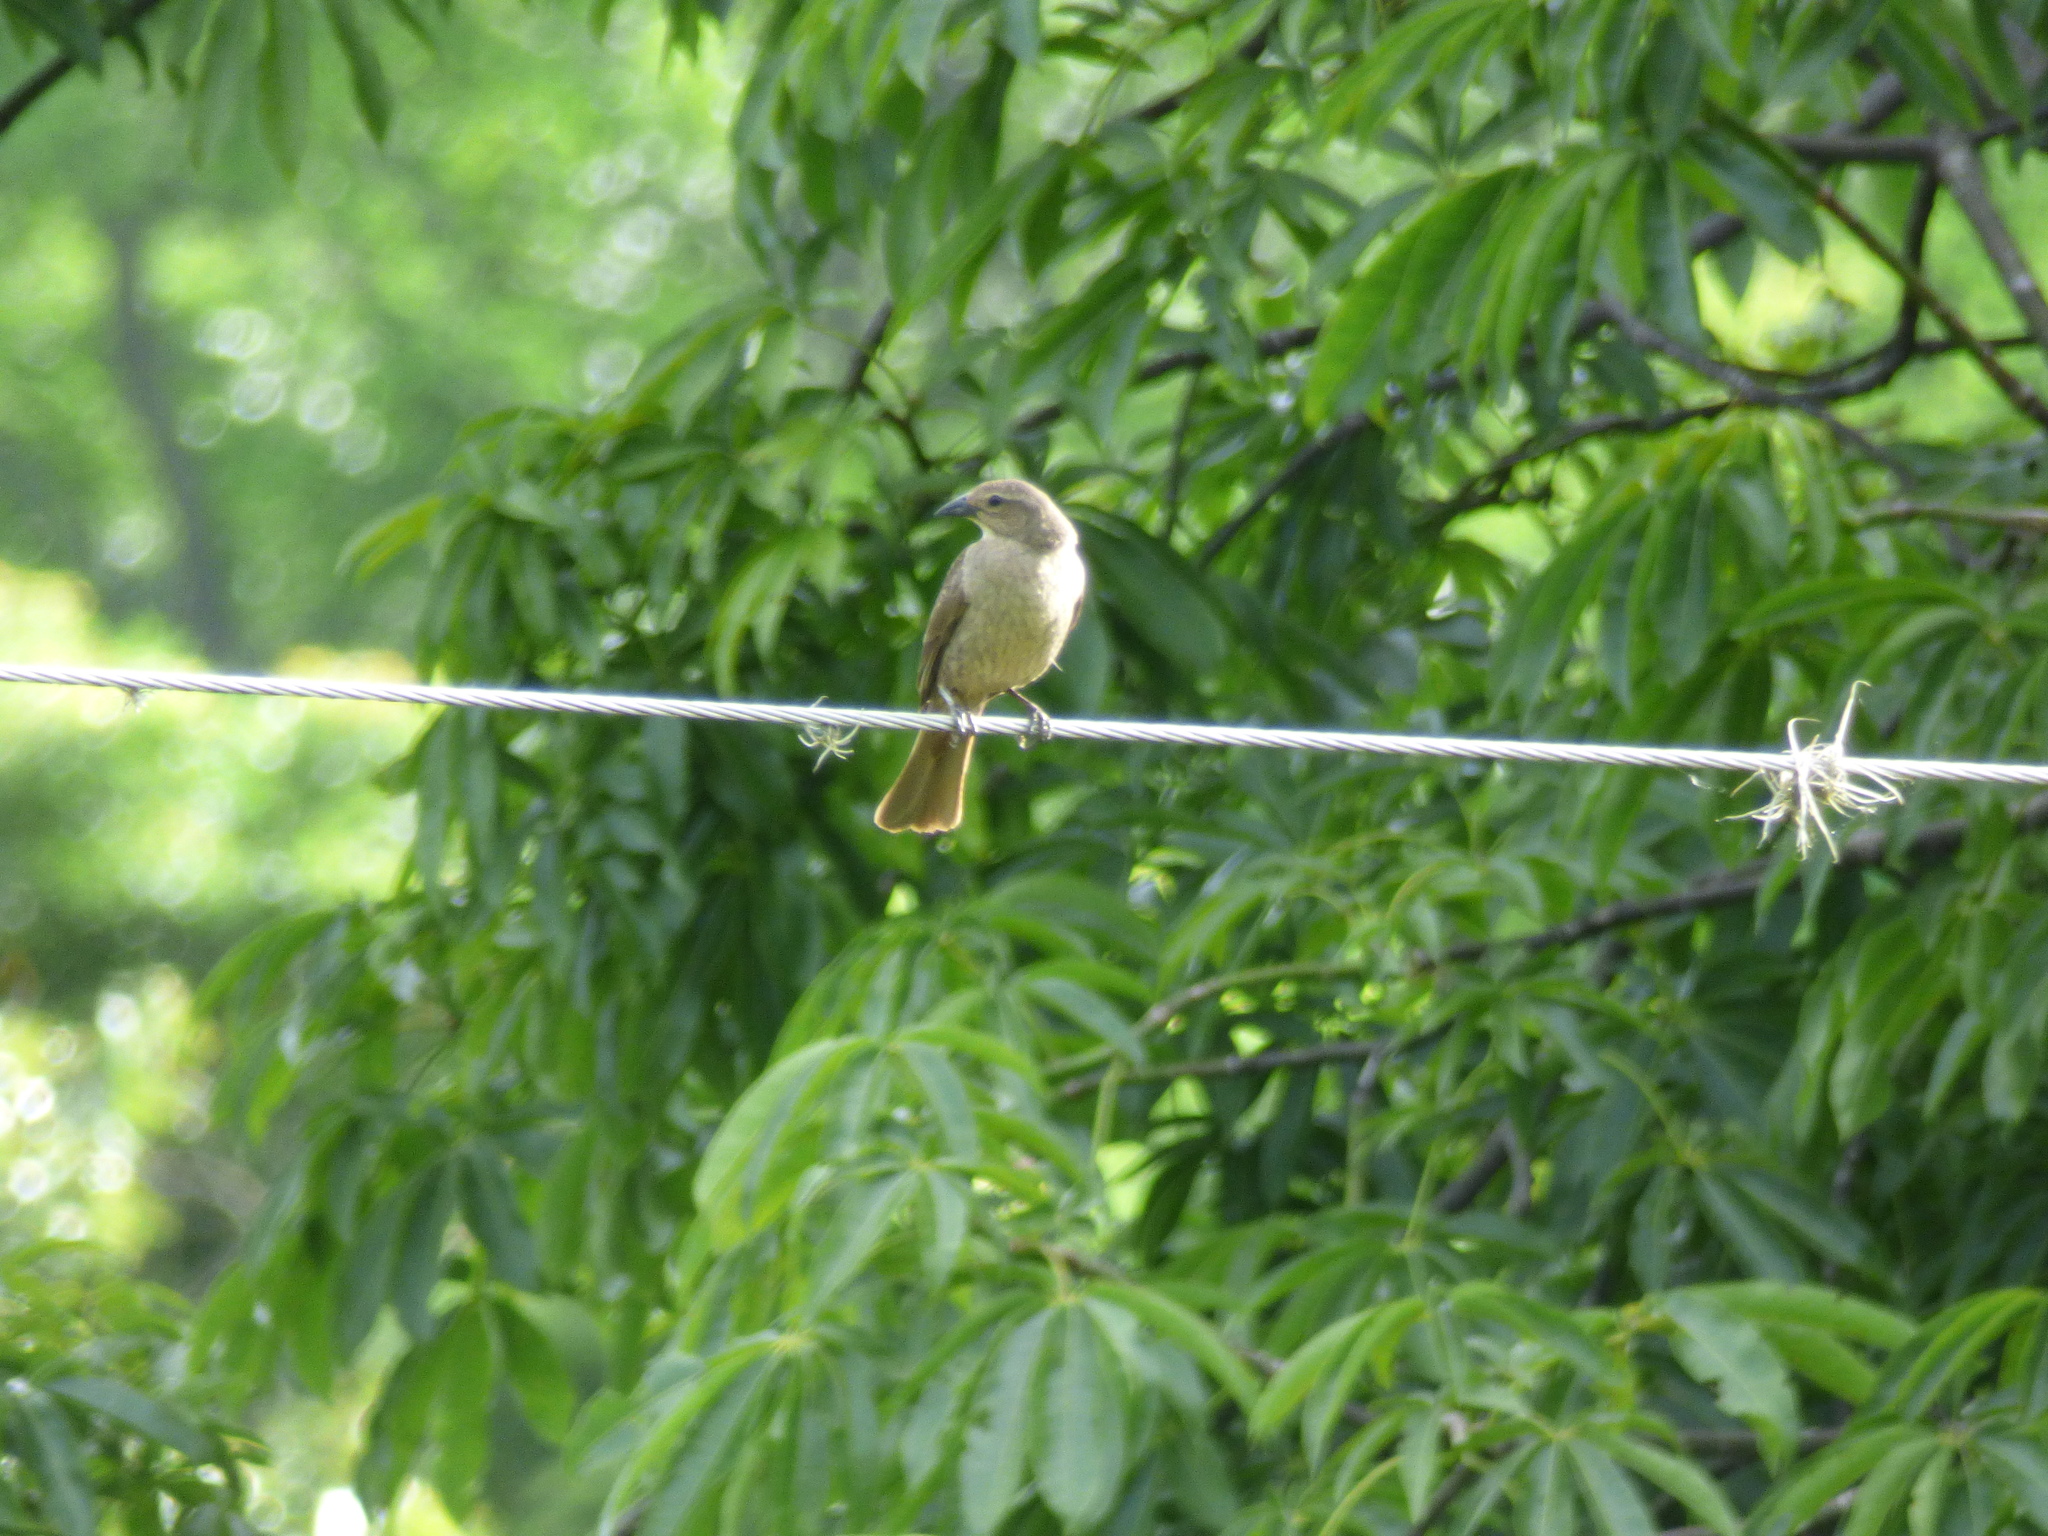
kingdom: Animalia
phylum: Chordata
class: Aves
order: Passeriformes
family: Icteridae
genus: Molothrus
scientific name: Molothrus bonariensis
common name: Shiny cowbird
